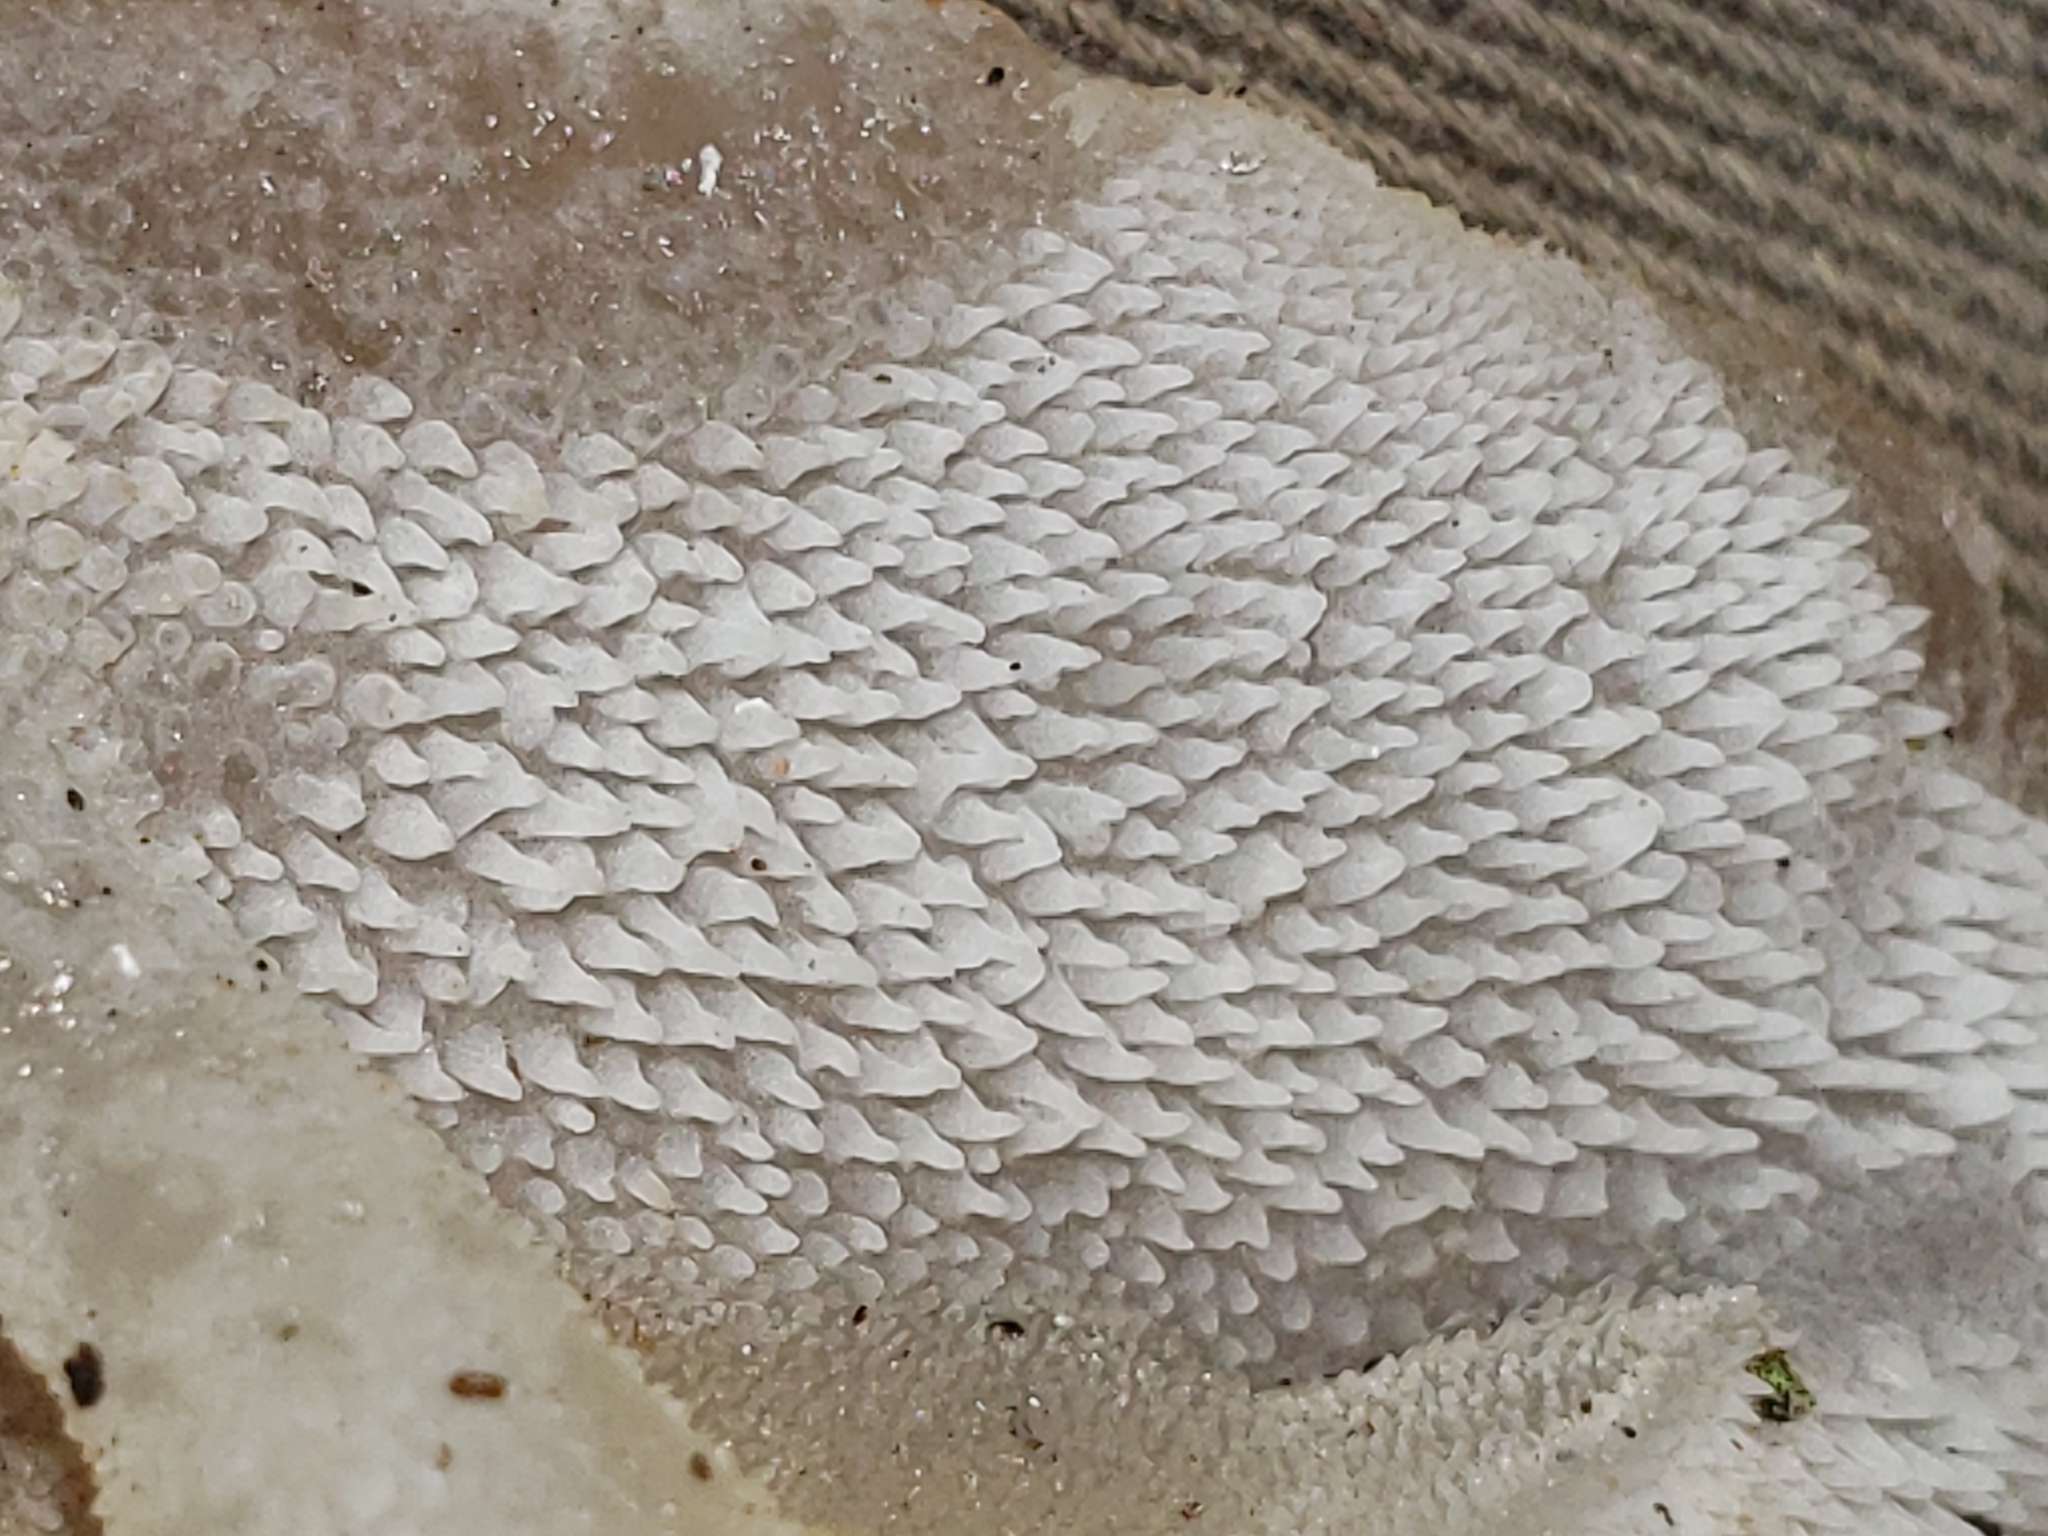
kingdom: Fungi
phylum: Basidiomycota
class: Agaricomycetes
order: Auriculariales
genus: Pseudohydnum
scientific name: Pseudohydnum gelatinosum
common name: Jelly tongue
